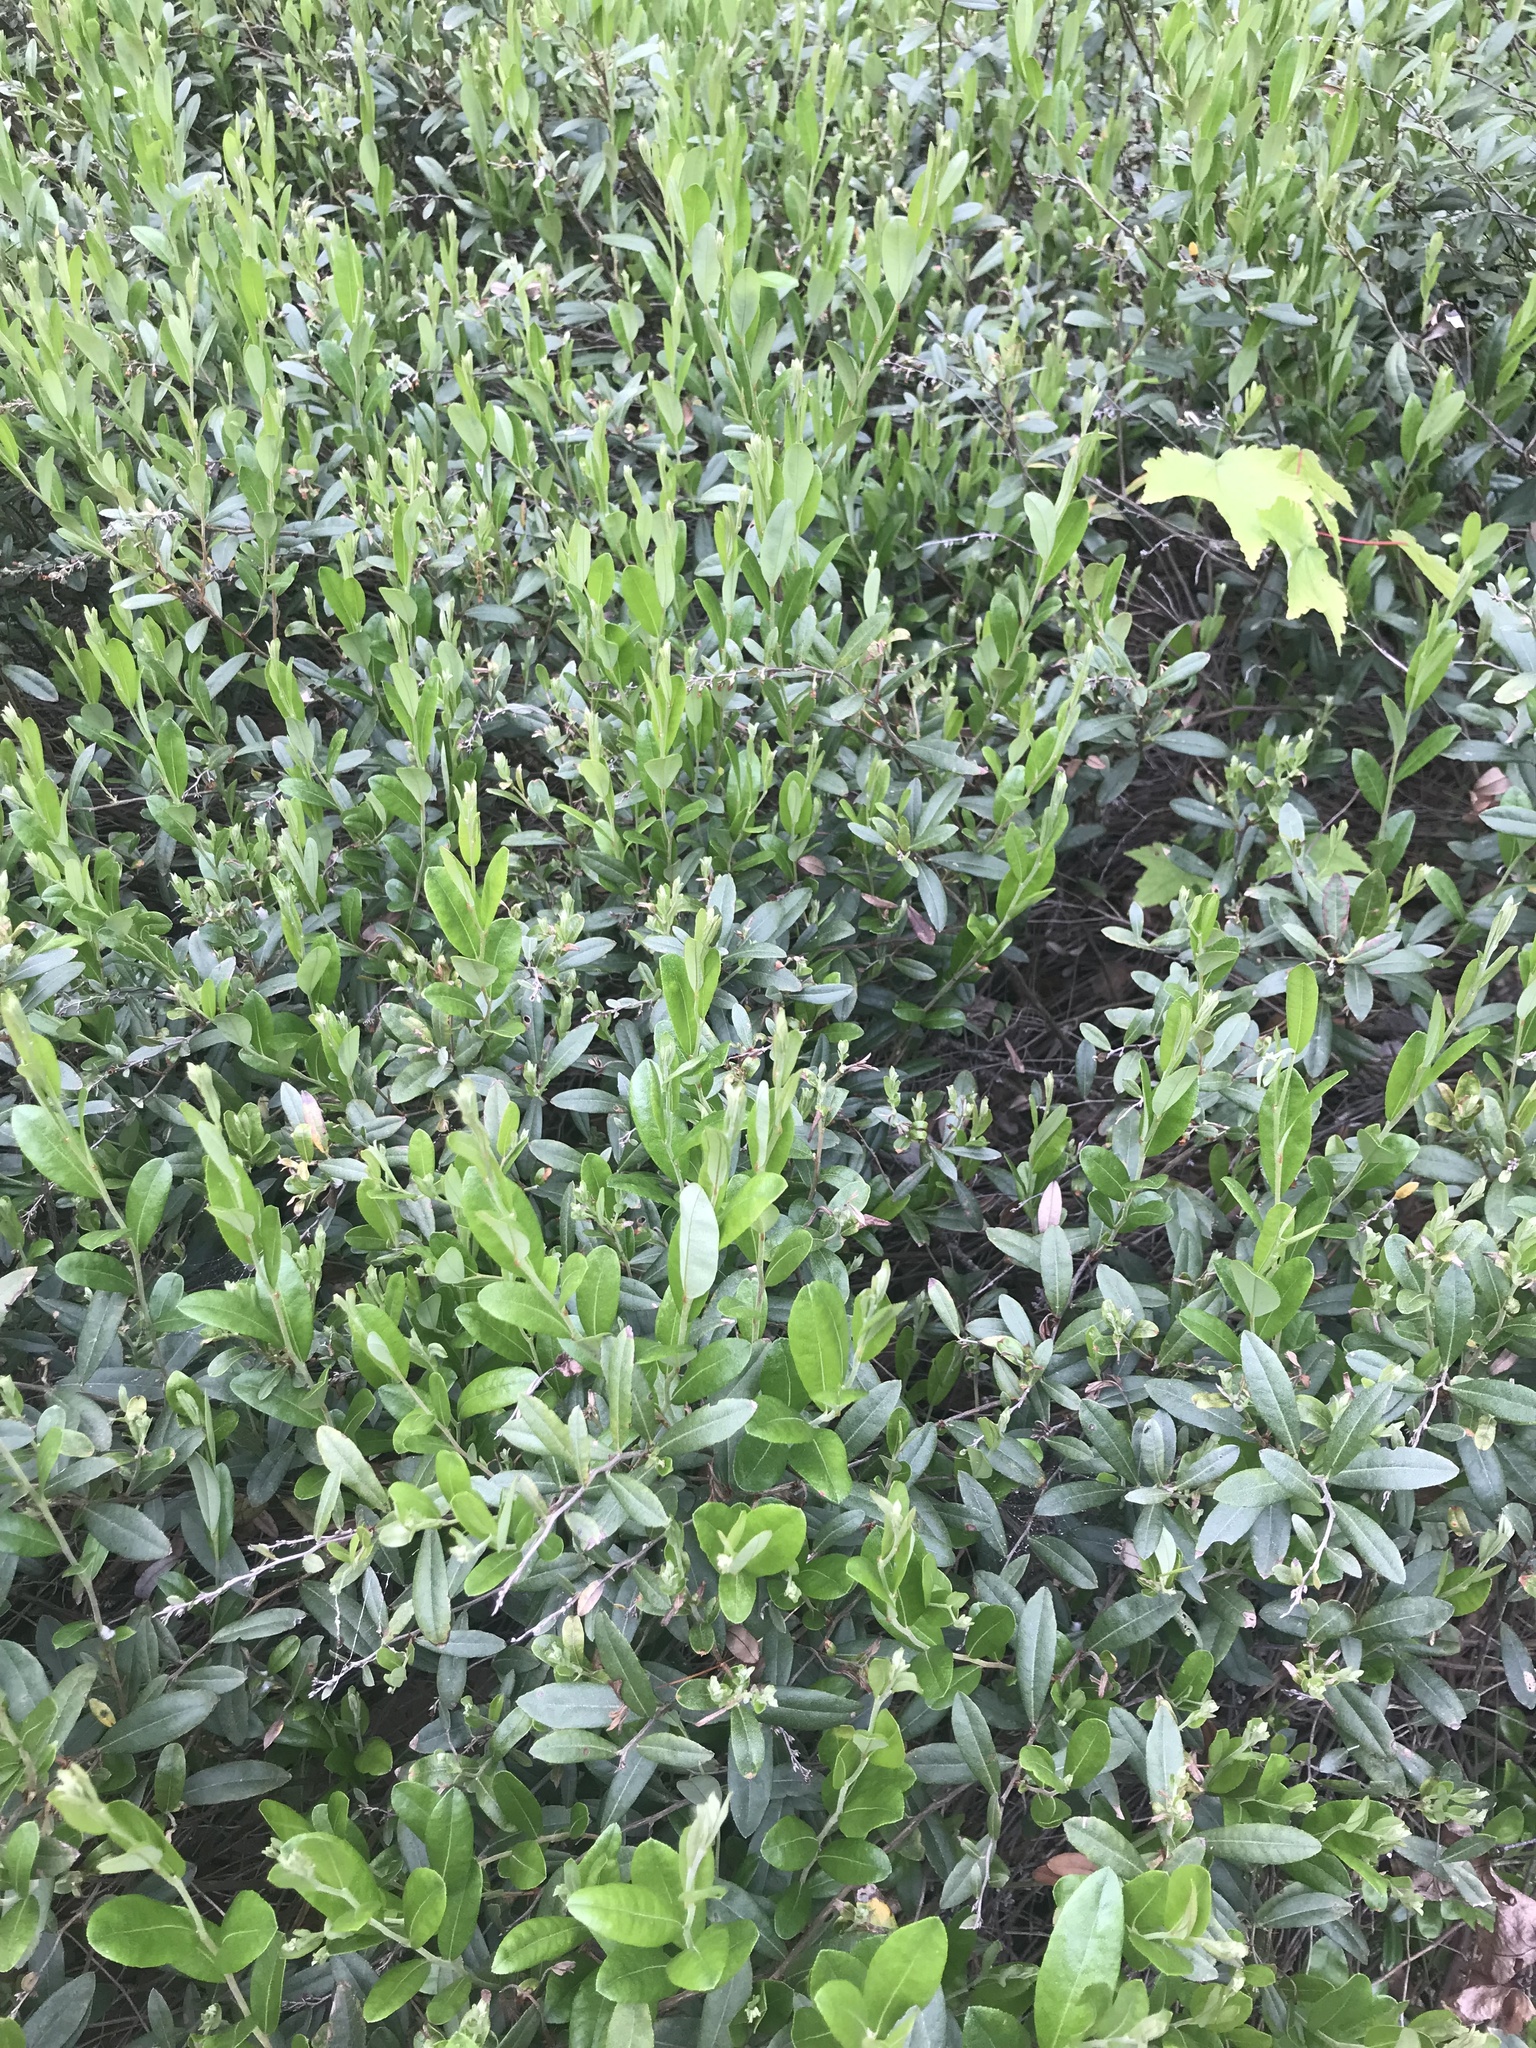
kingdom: Plantae
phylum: Tracheophyta
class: Magnoliopsida
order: Ericales
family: Ericaceae
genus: Chamaedaphne
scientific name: Chamaedaphne calyculata
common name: Leatherleaf
